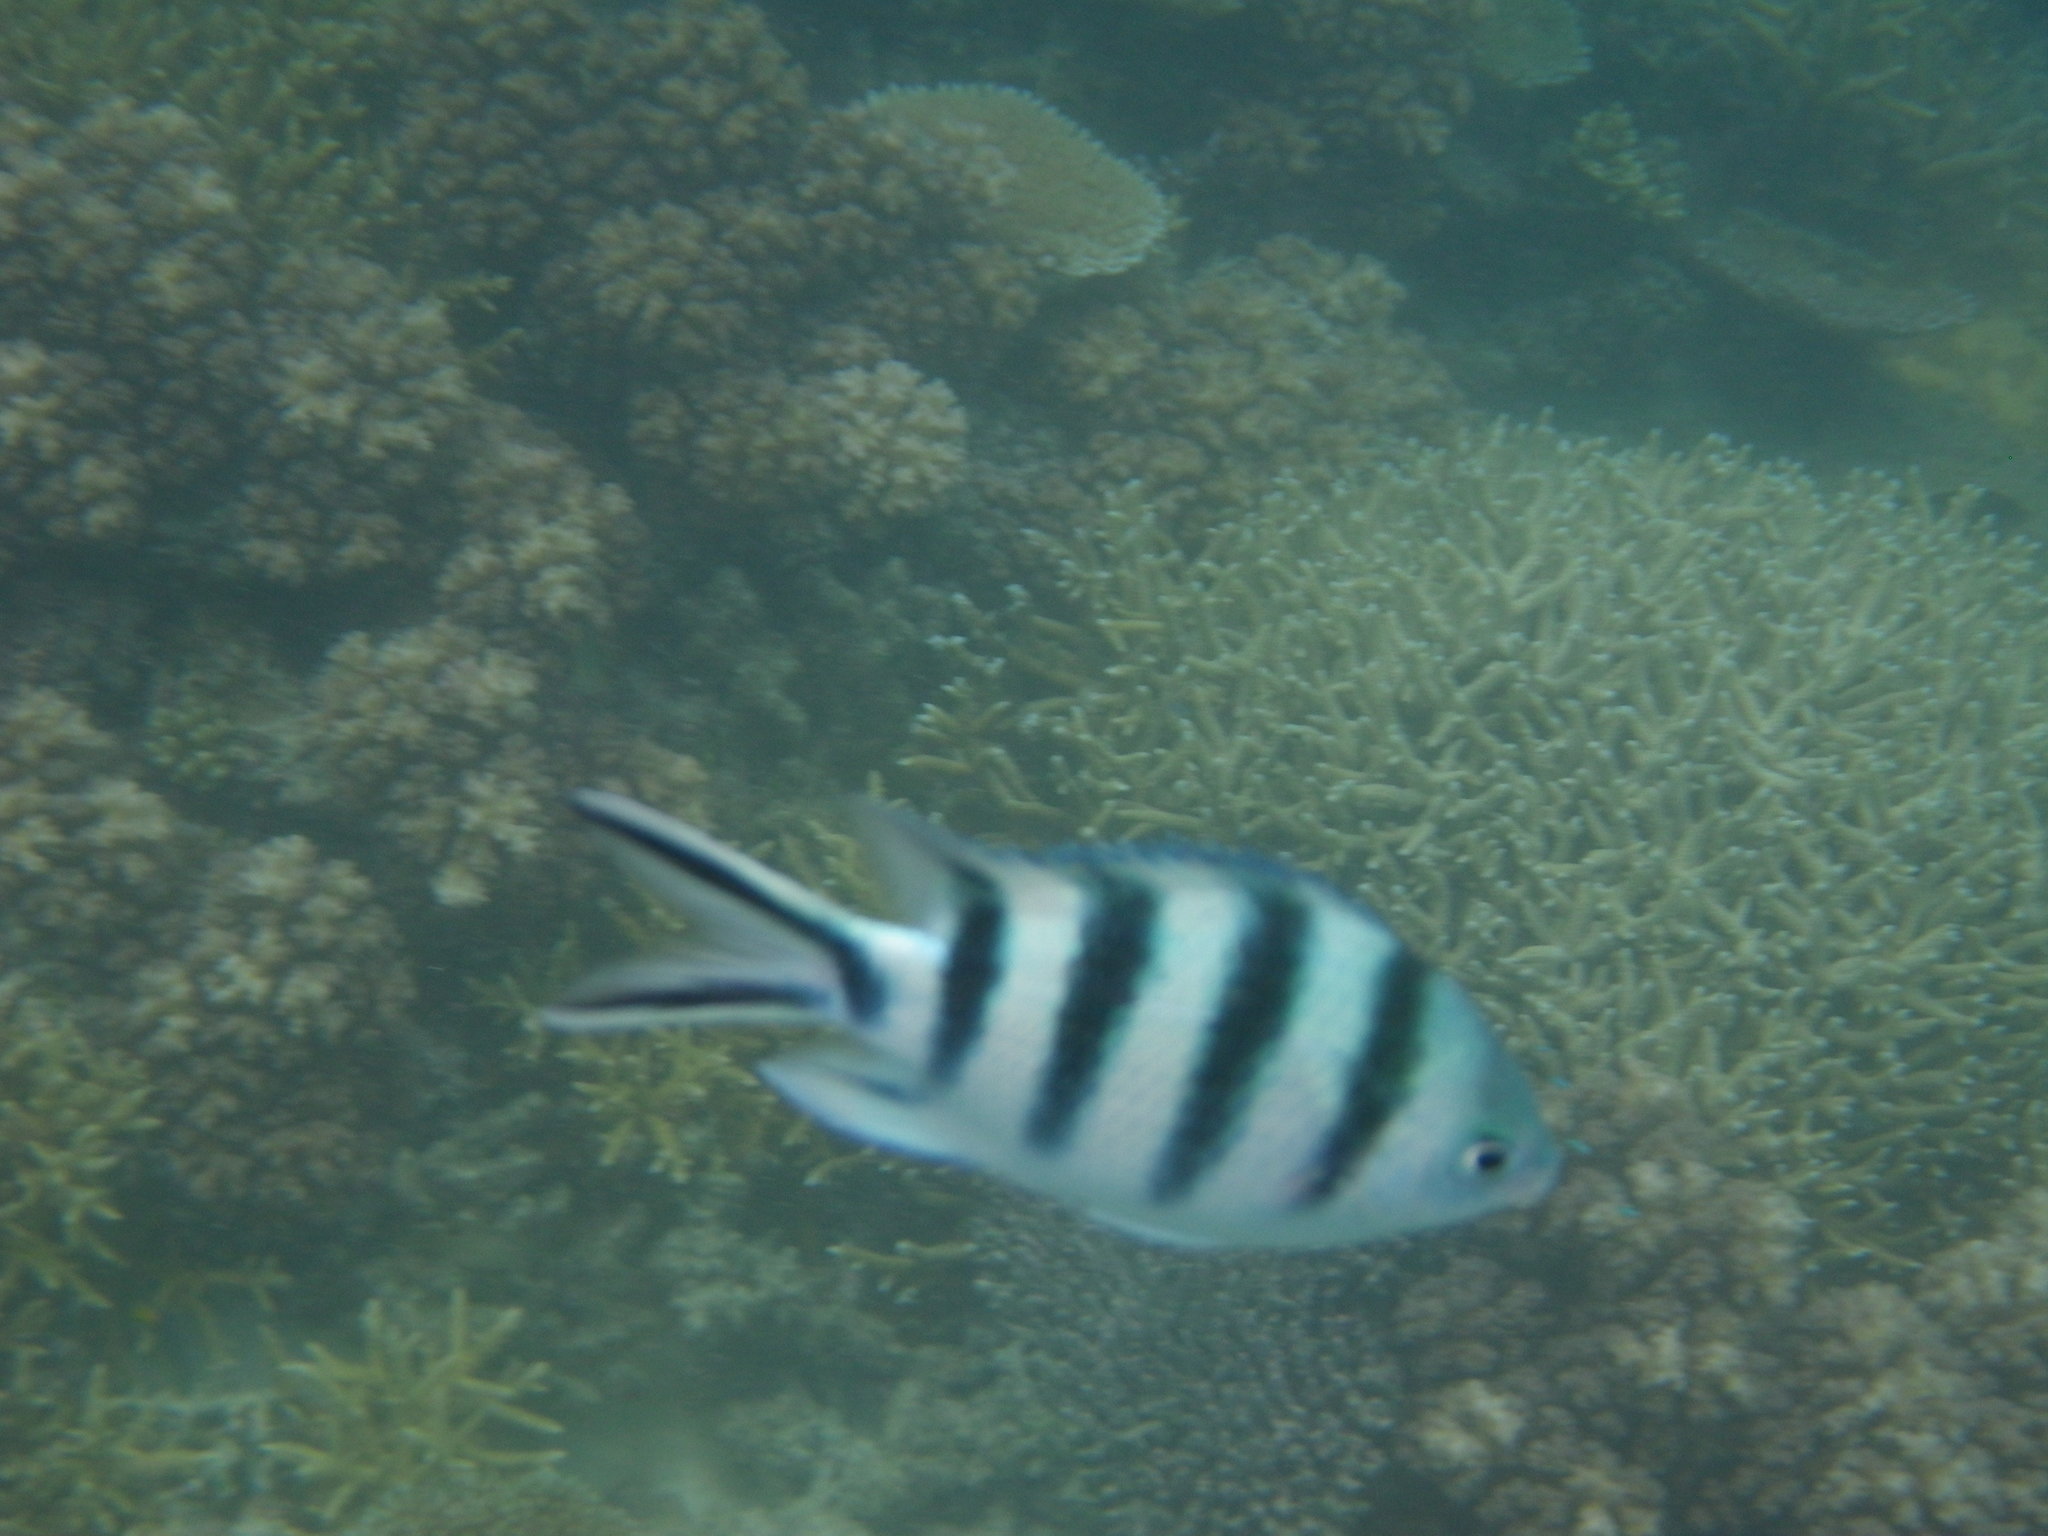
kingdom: Animalia
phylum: Chordata
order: Perciformes
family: Pomacentridae
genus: Abudefduf
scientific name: Abudefduf sexfasciatus
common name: Scissortail sergeant
